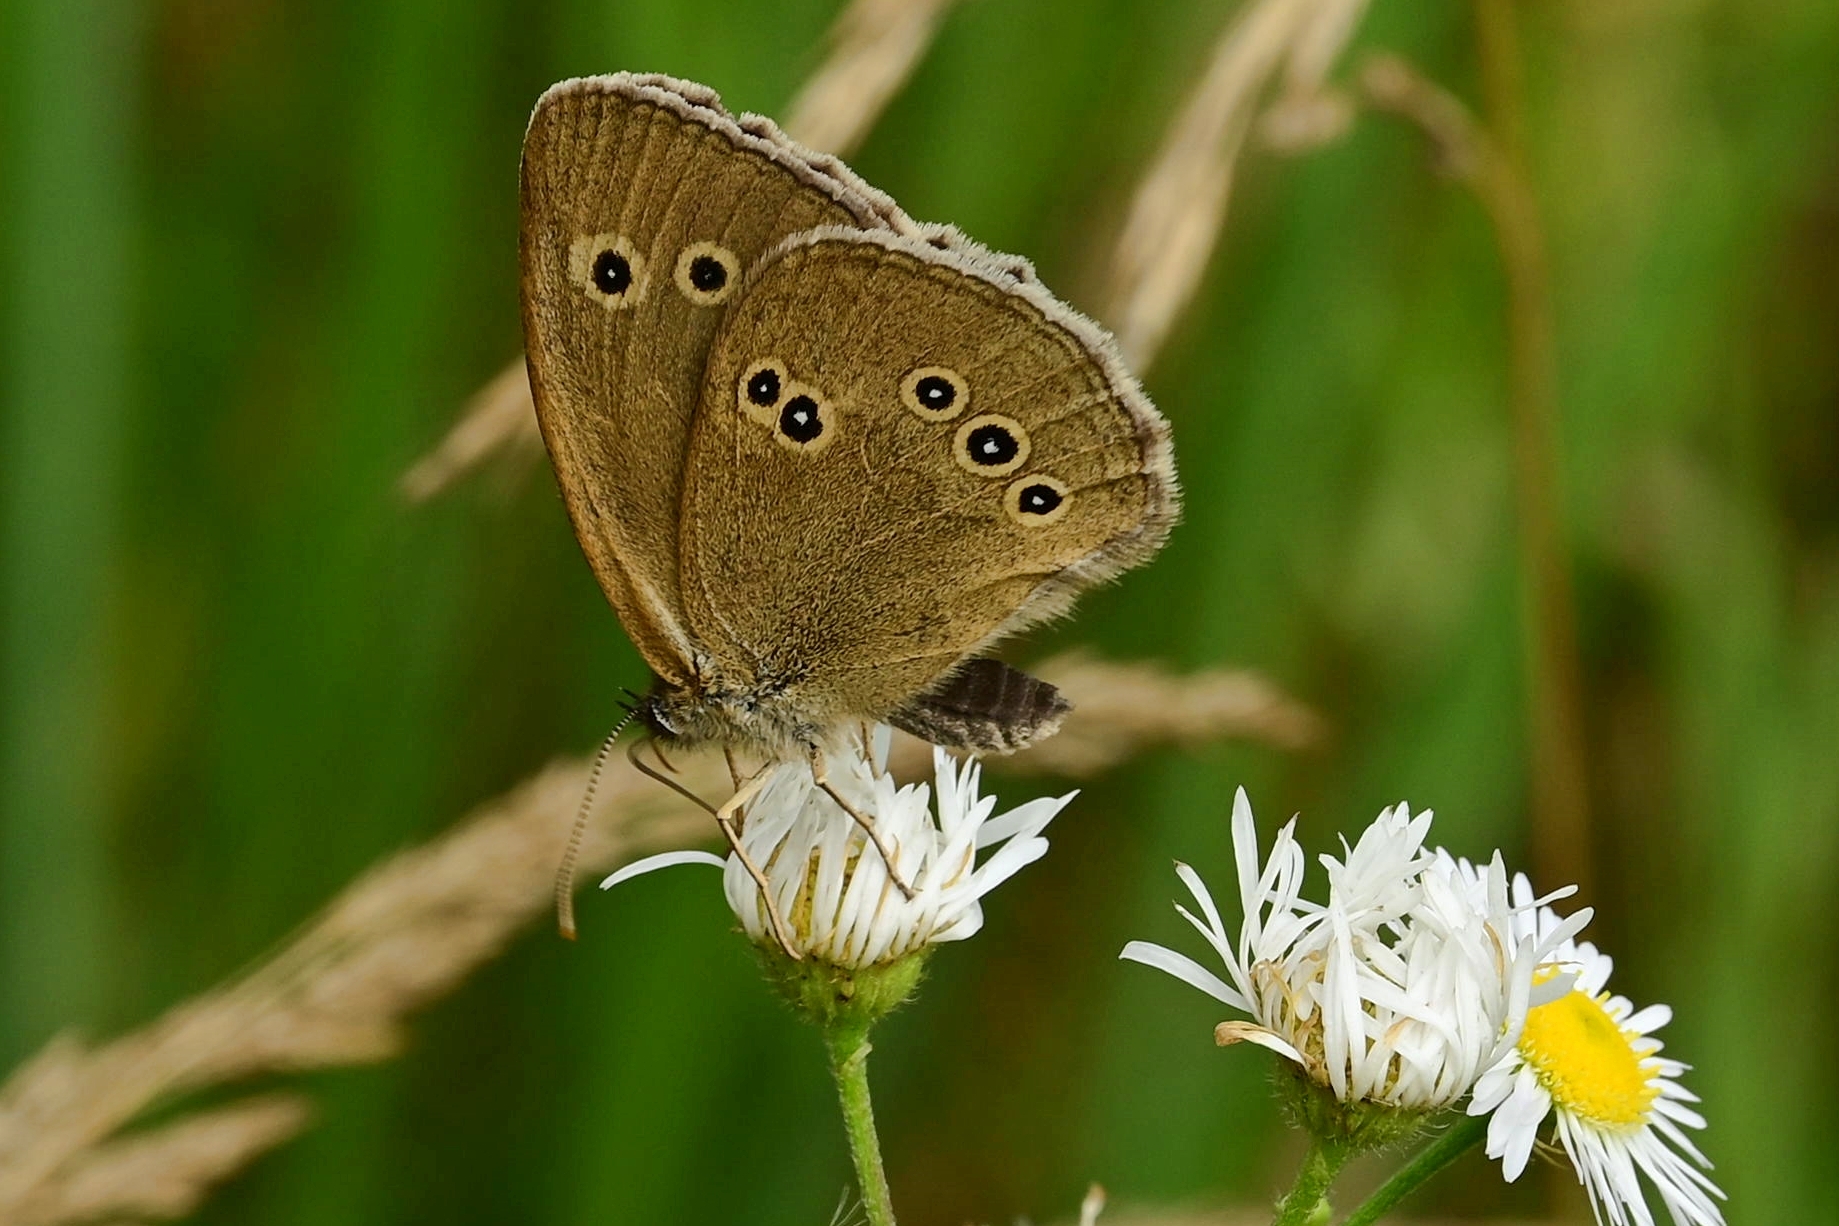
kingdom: Animalia
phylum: Arthropoda
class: Insecta
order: Lepidoptera
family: Nymphalidae
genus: Aphantopus
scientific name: Aphantopus hyperantus
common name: Ringlet
